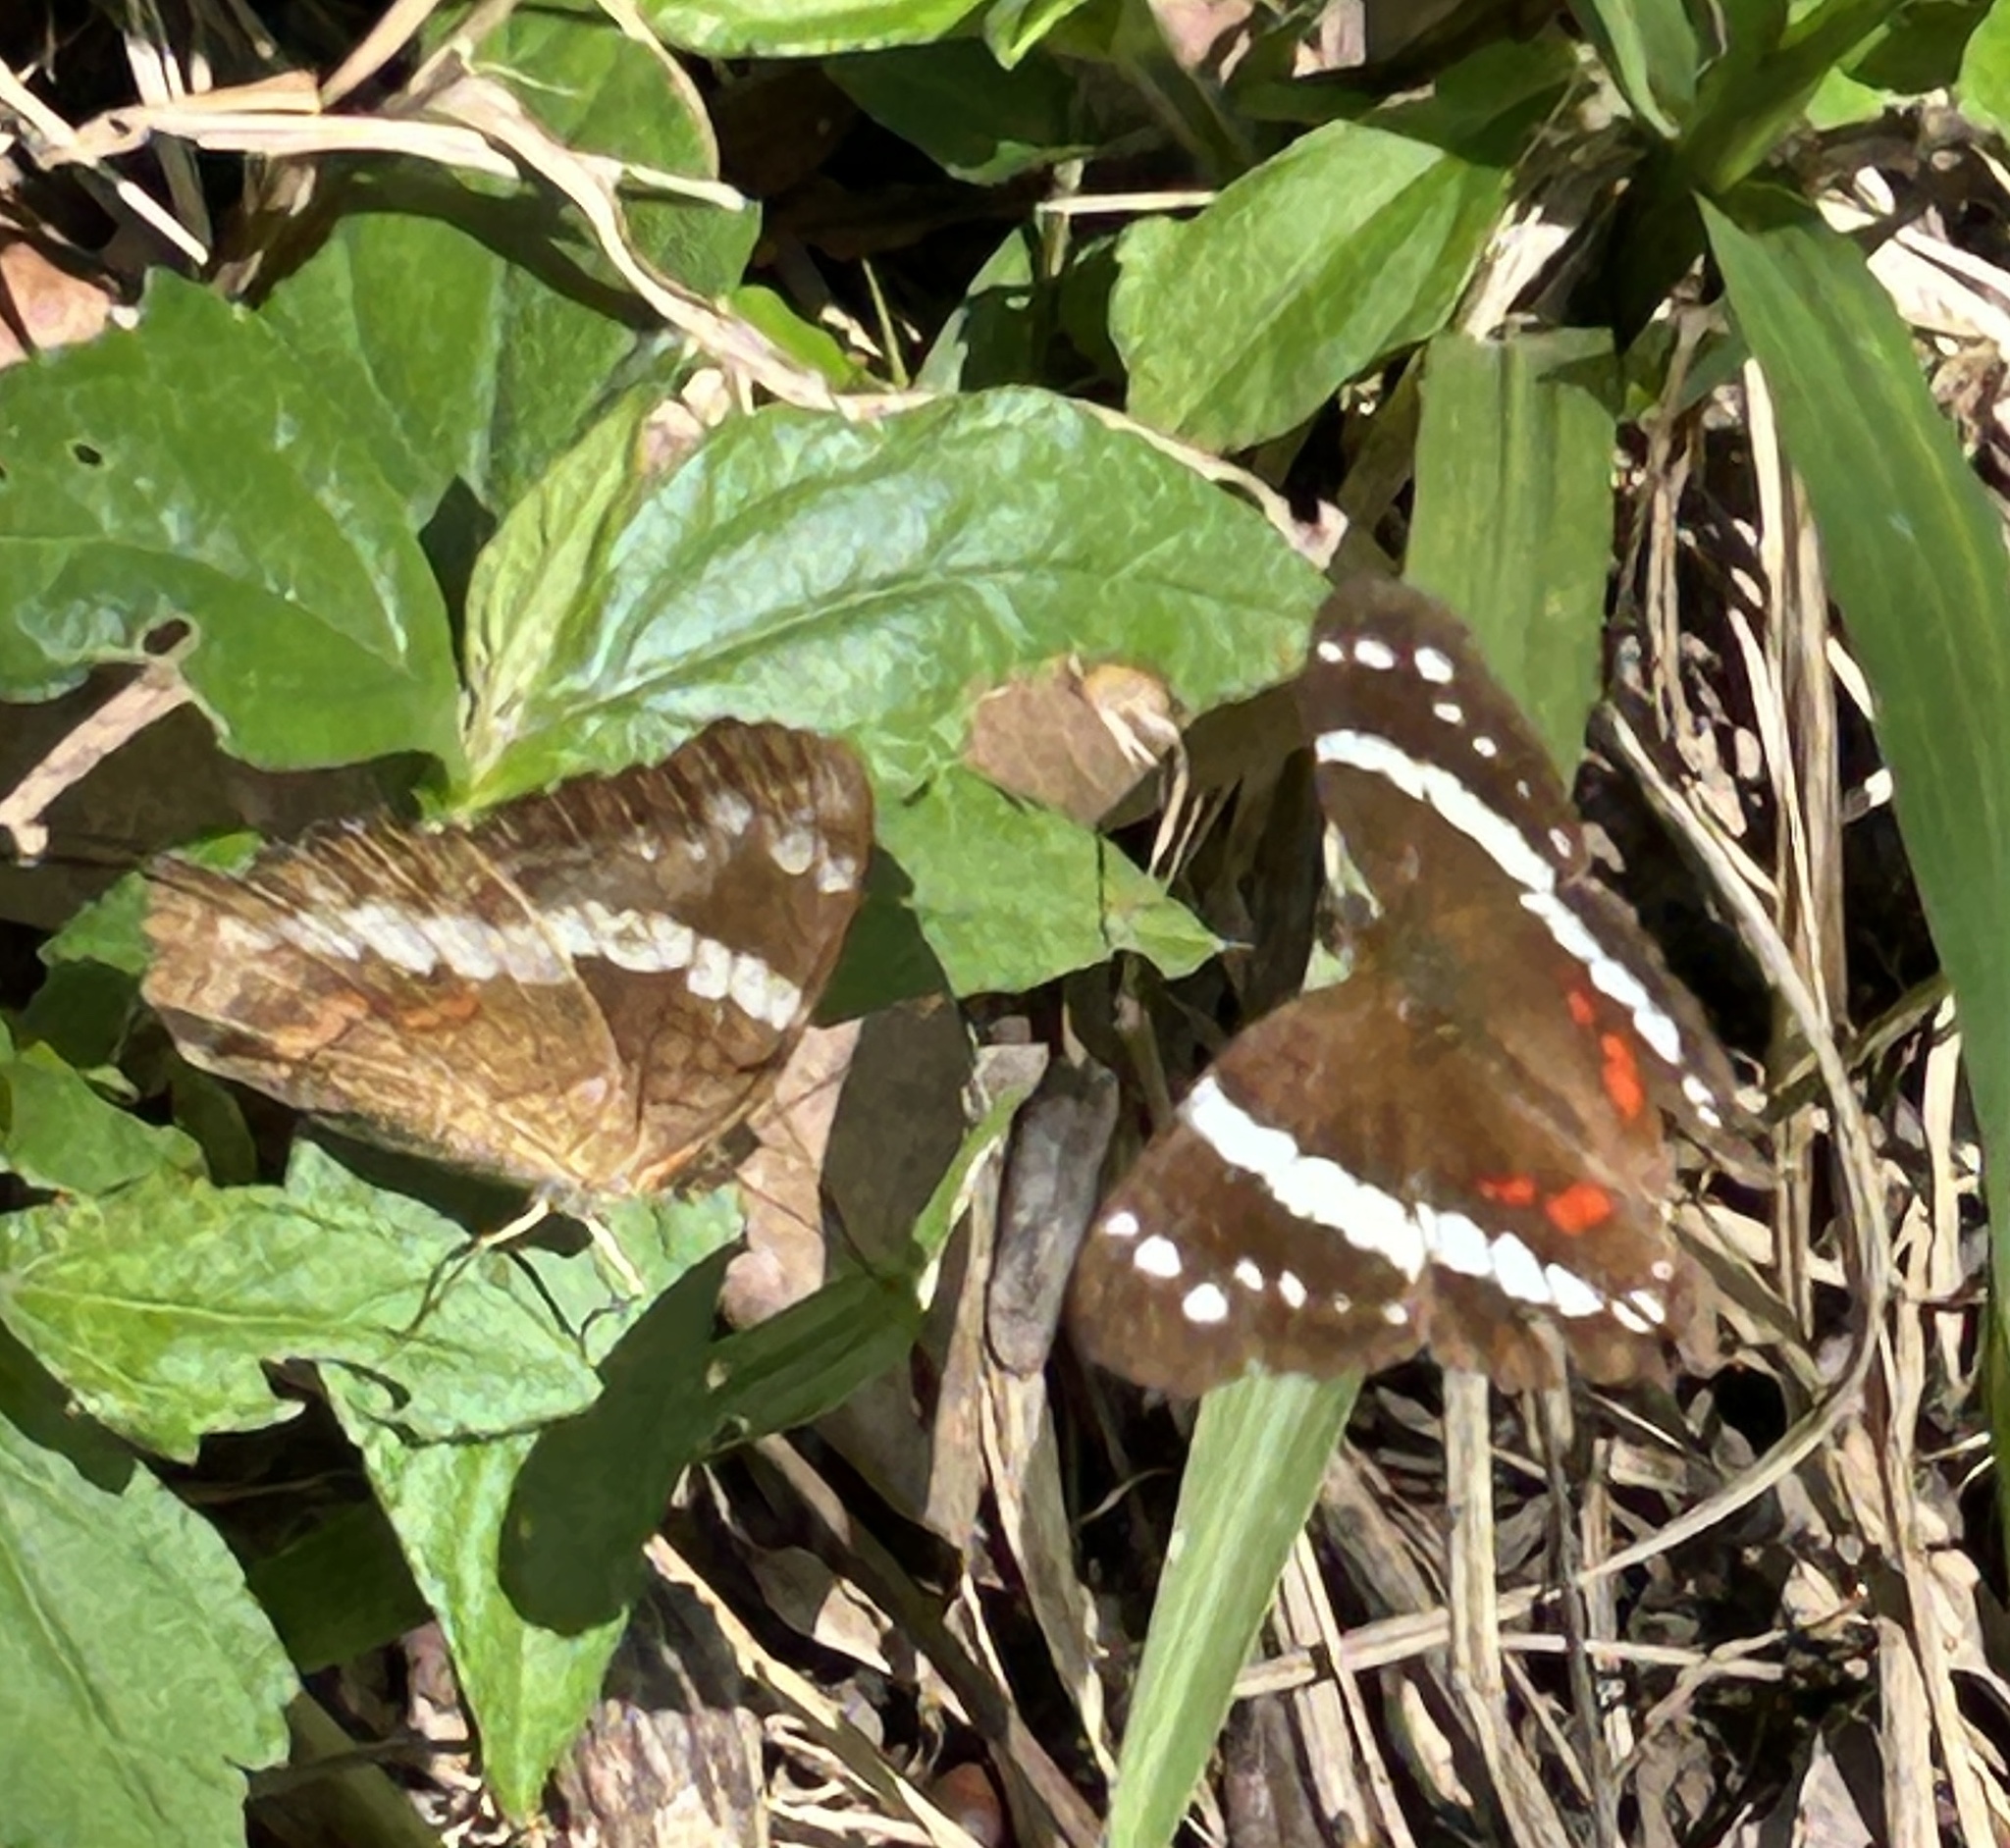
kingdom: Animalia
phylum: Arthropoda
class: Insecta
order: Lepidoptera
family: Nymphalidae
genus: Anartia
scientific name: Anartia fatima
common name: Banded peacock
